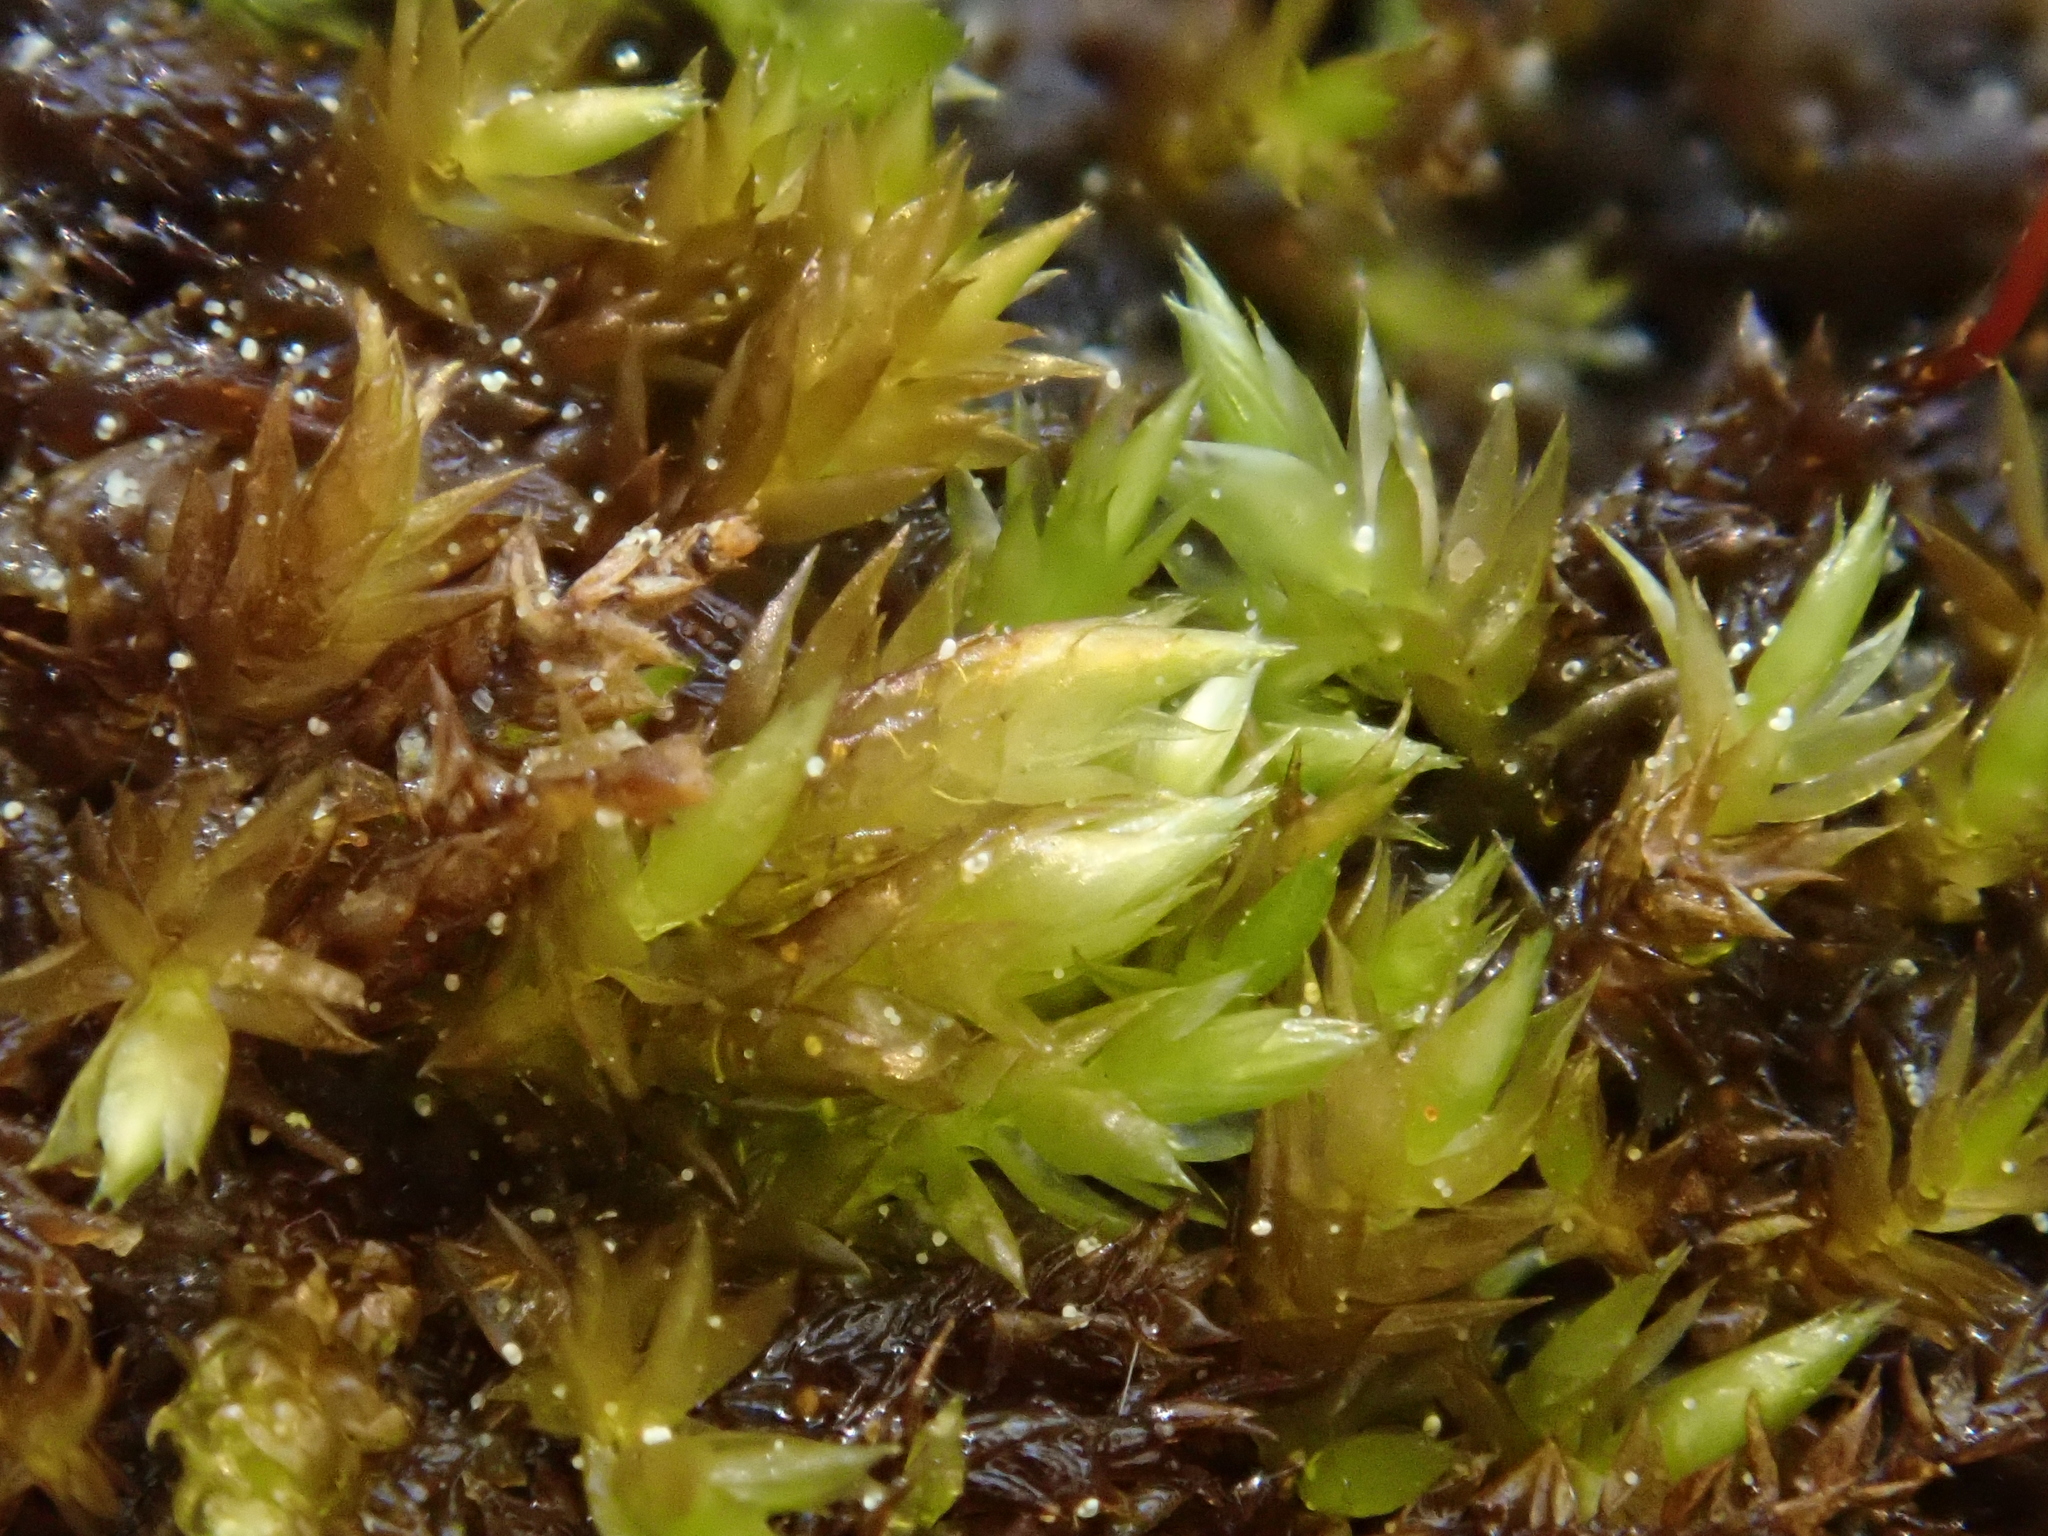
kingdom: Plantae
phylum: Bryophyta
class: Bryopsida
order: Hypnales
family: Amblystegiaceae
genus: Hygrohypnum
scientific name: Hygrohypnum luridum
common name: Drab brook moss
